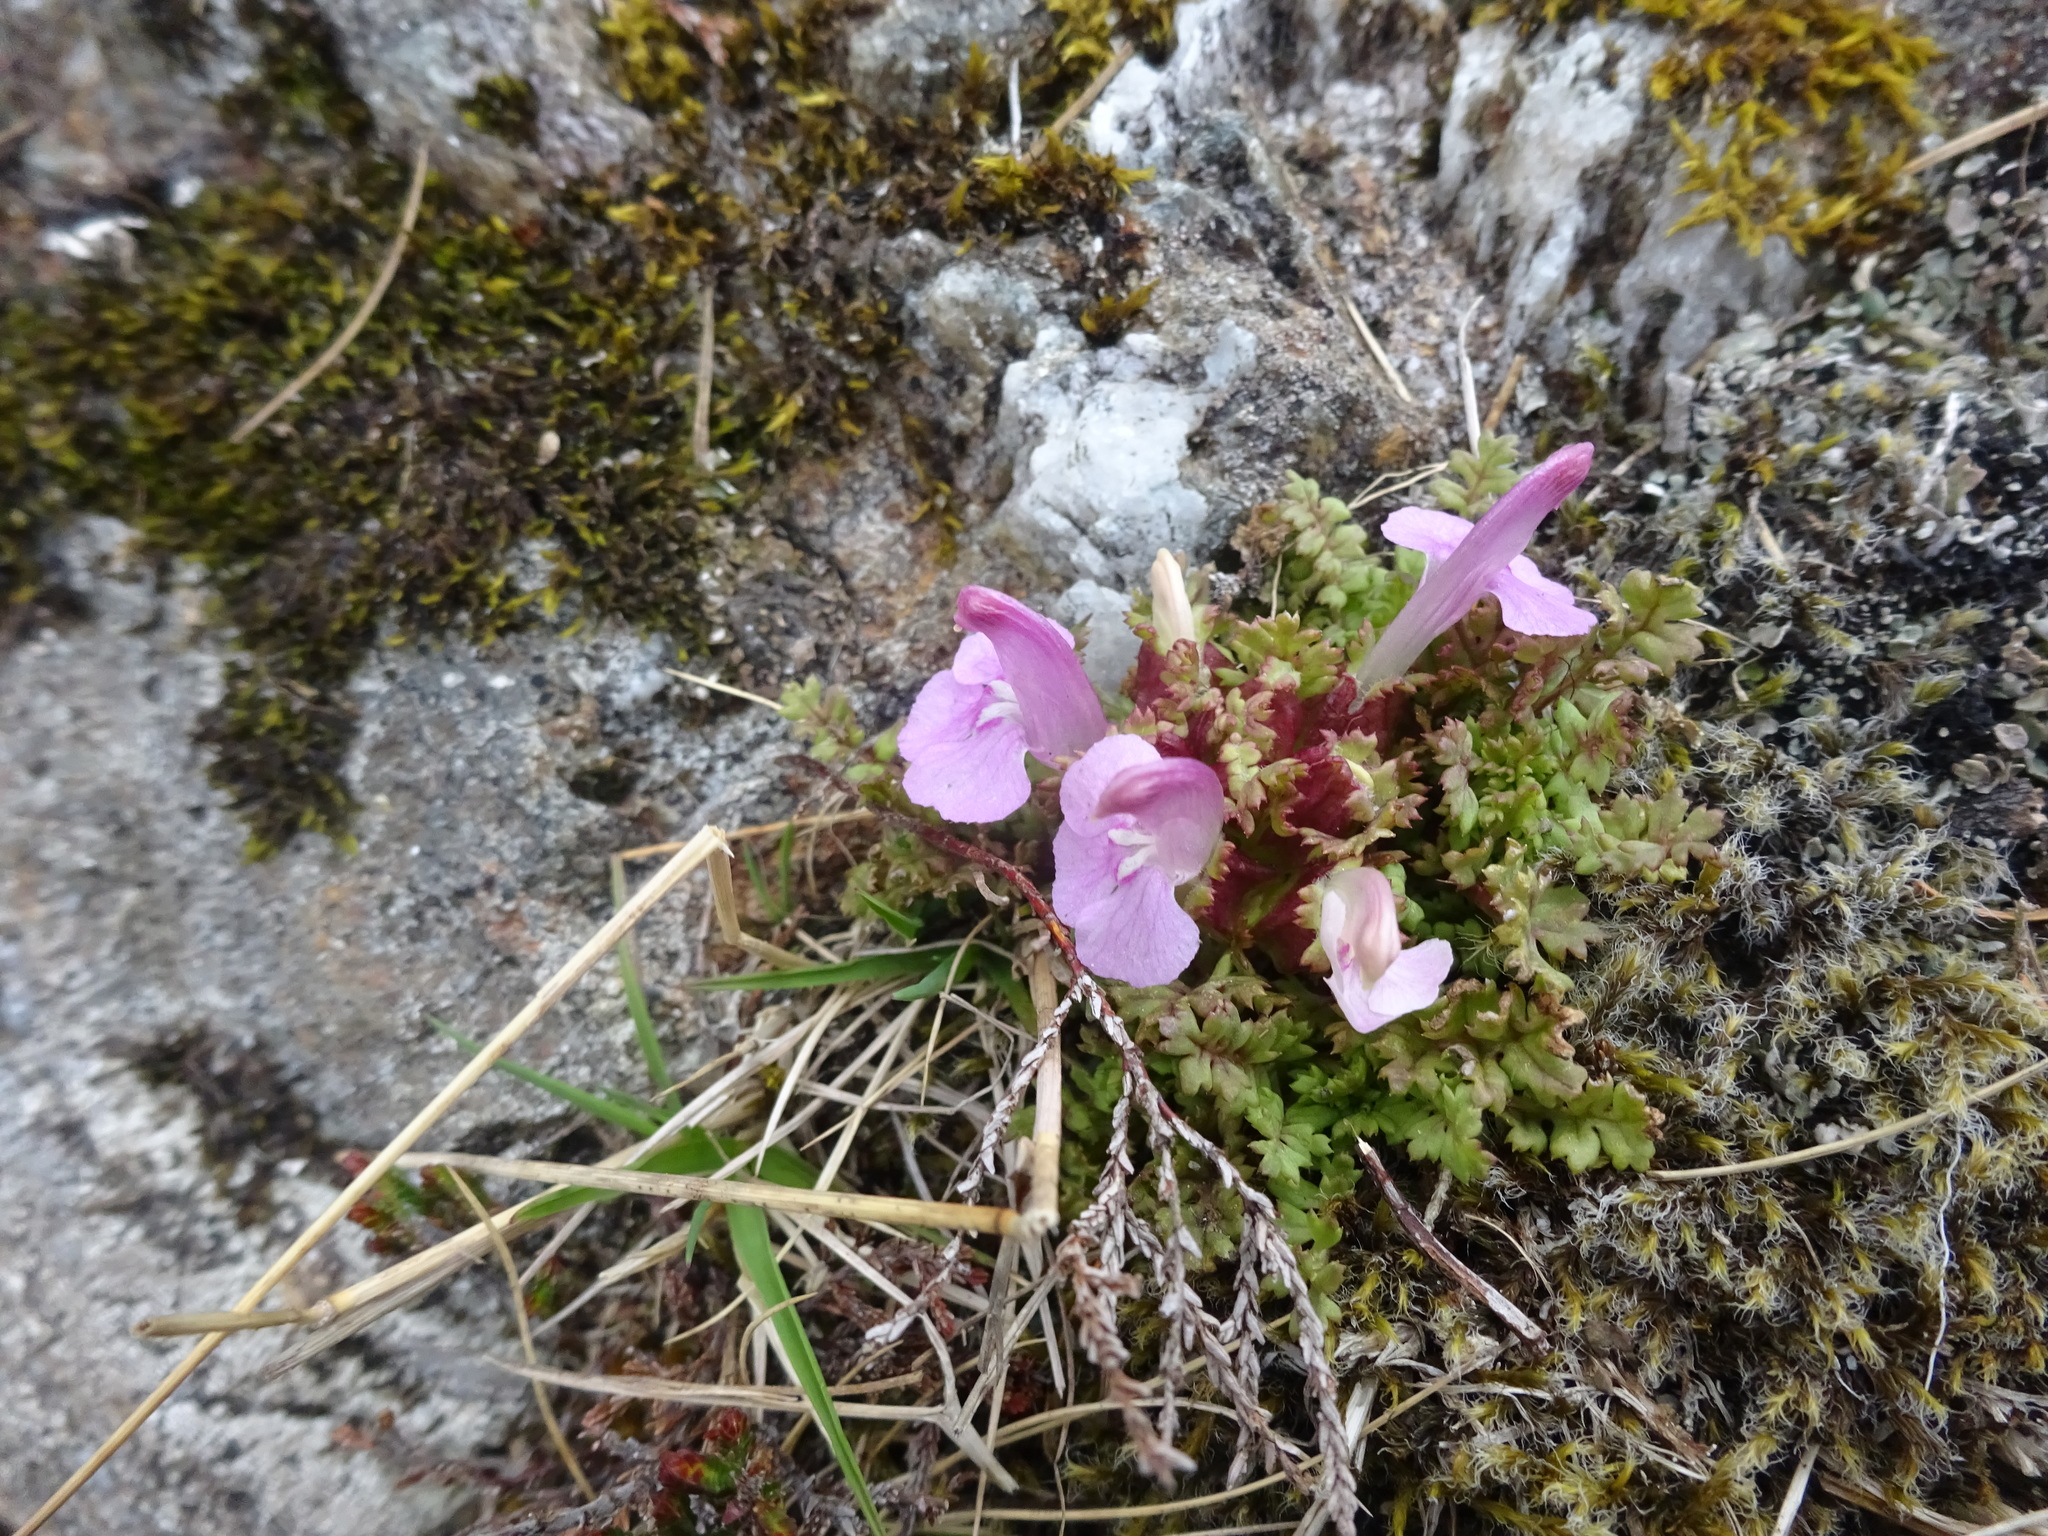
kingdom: Plantae
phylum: Tracheophyta
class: Magnoliopsida
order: Lamiales
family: Orobanchaceae
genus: Pedicularis
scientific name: Pedicularis sylvatica
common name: Lousewort
